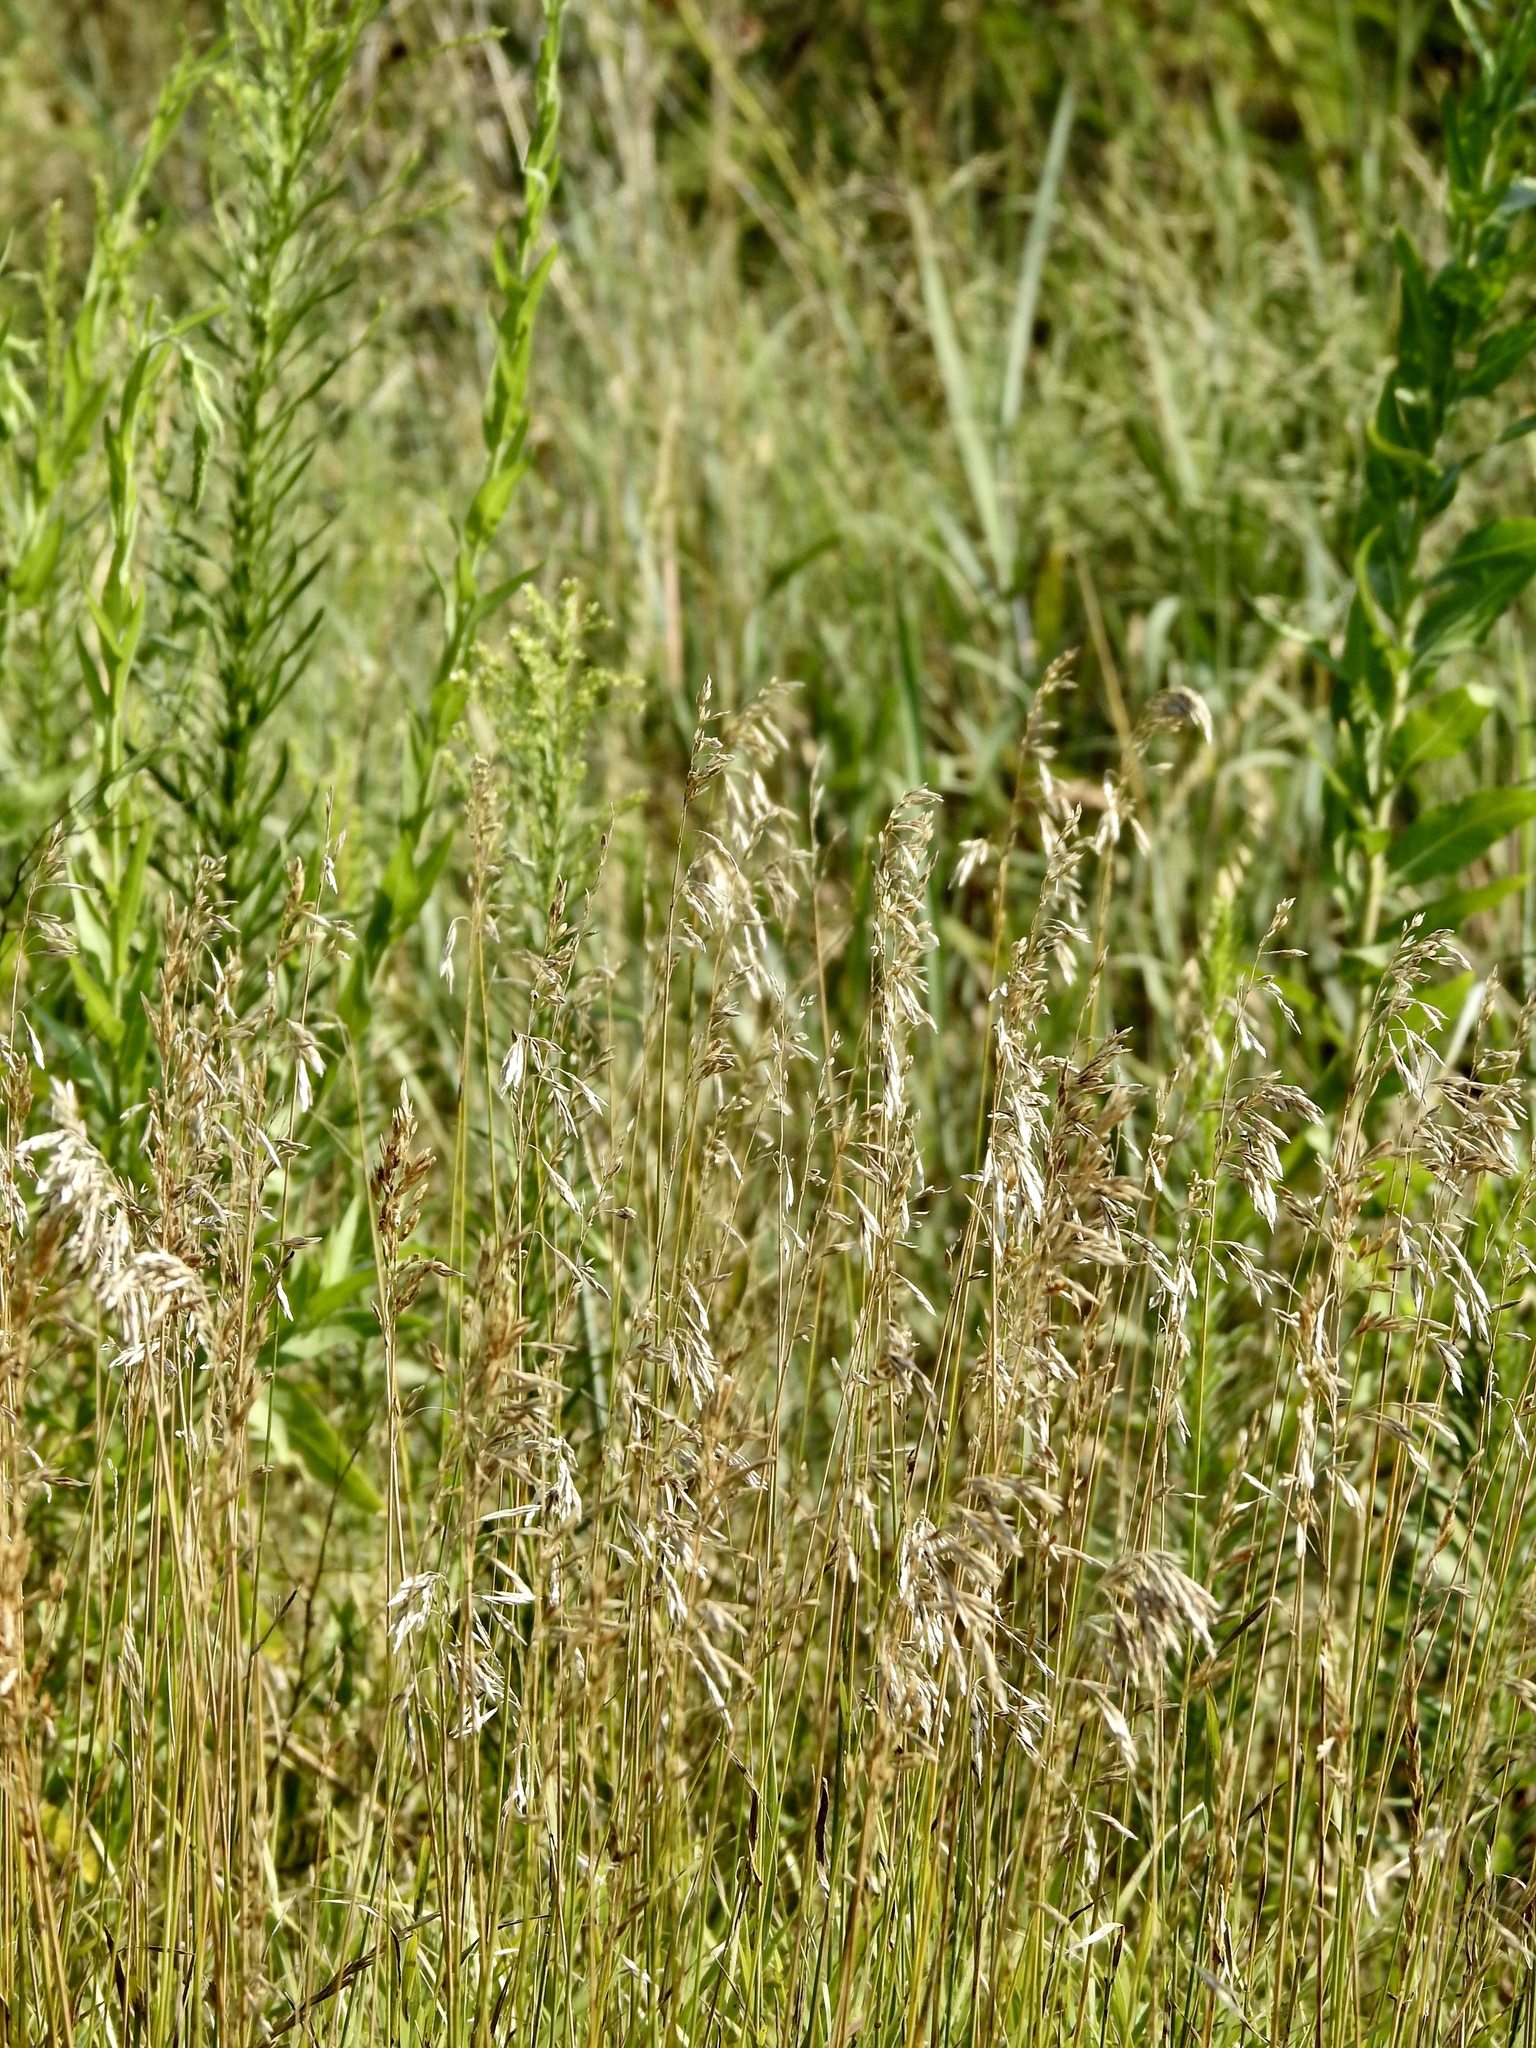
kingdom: Plantae
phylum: Tracheophyta
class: Liliopsida
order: Poales
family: Poaceae
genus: Bromus
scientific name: Bromus inermis
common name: Smooth brome
